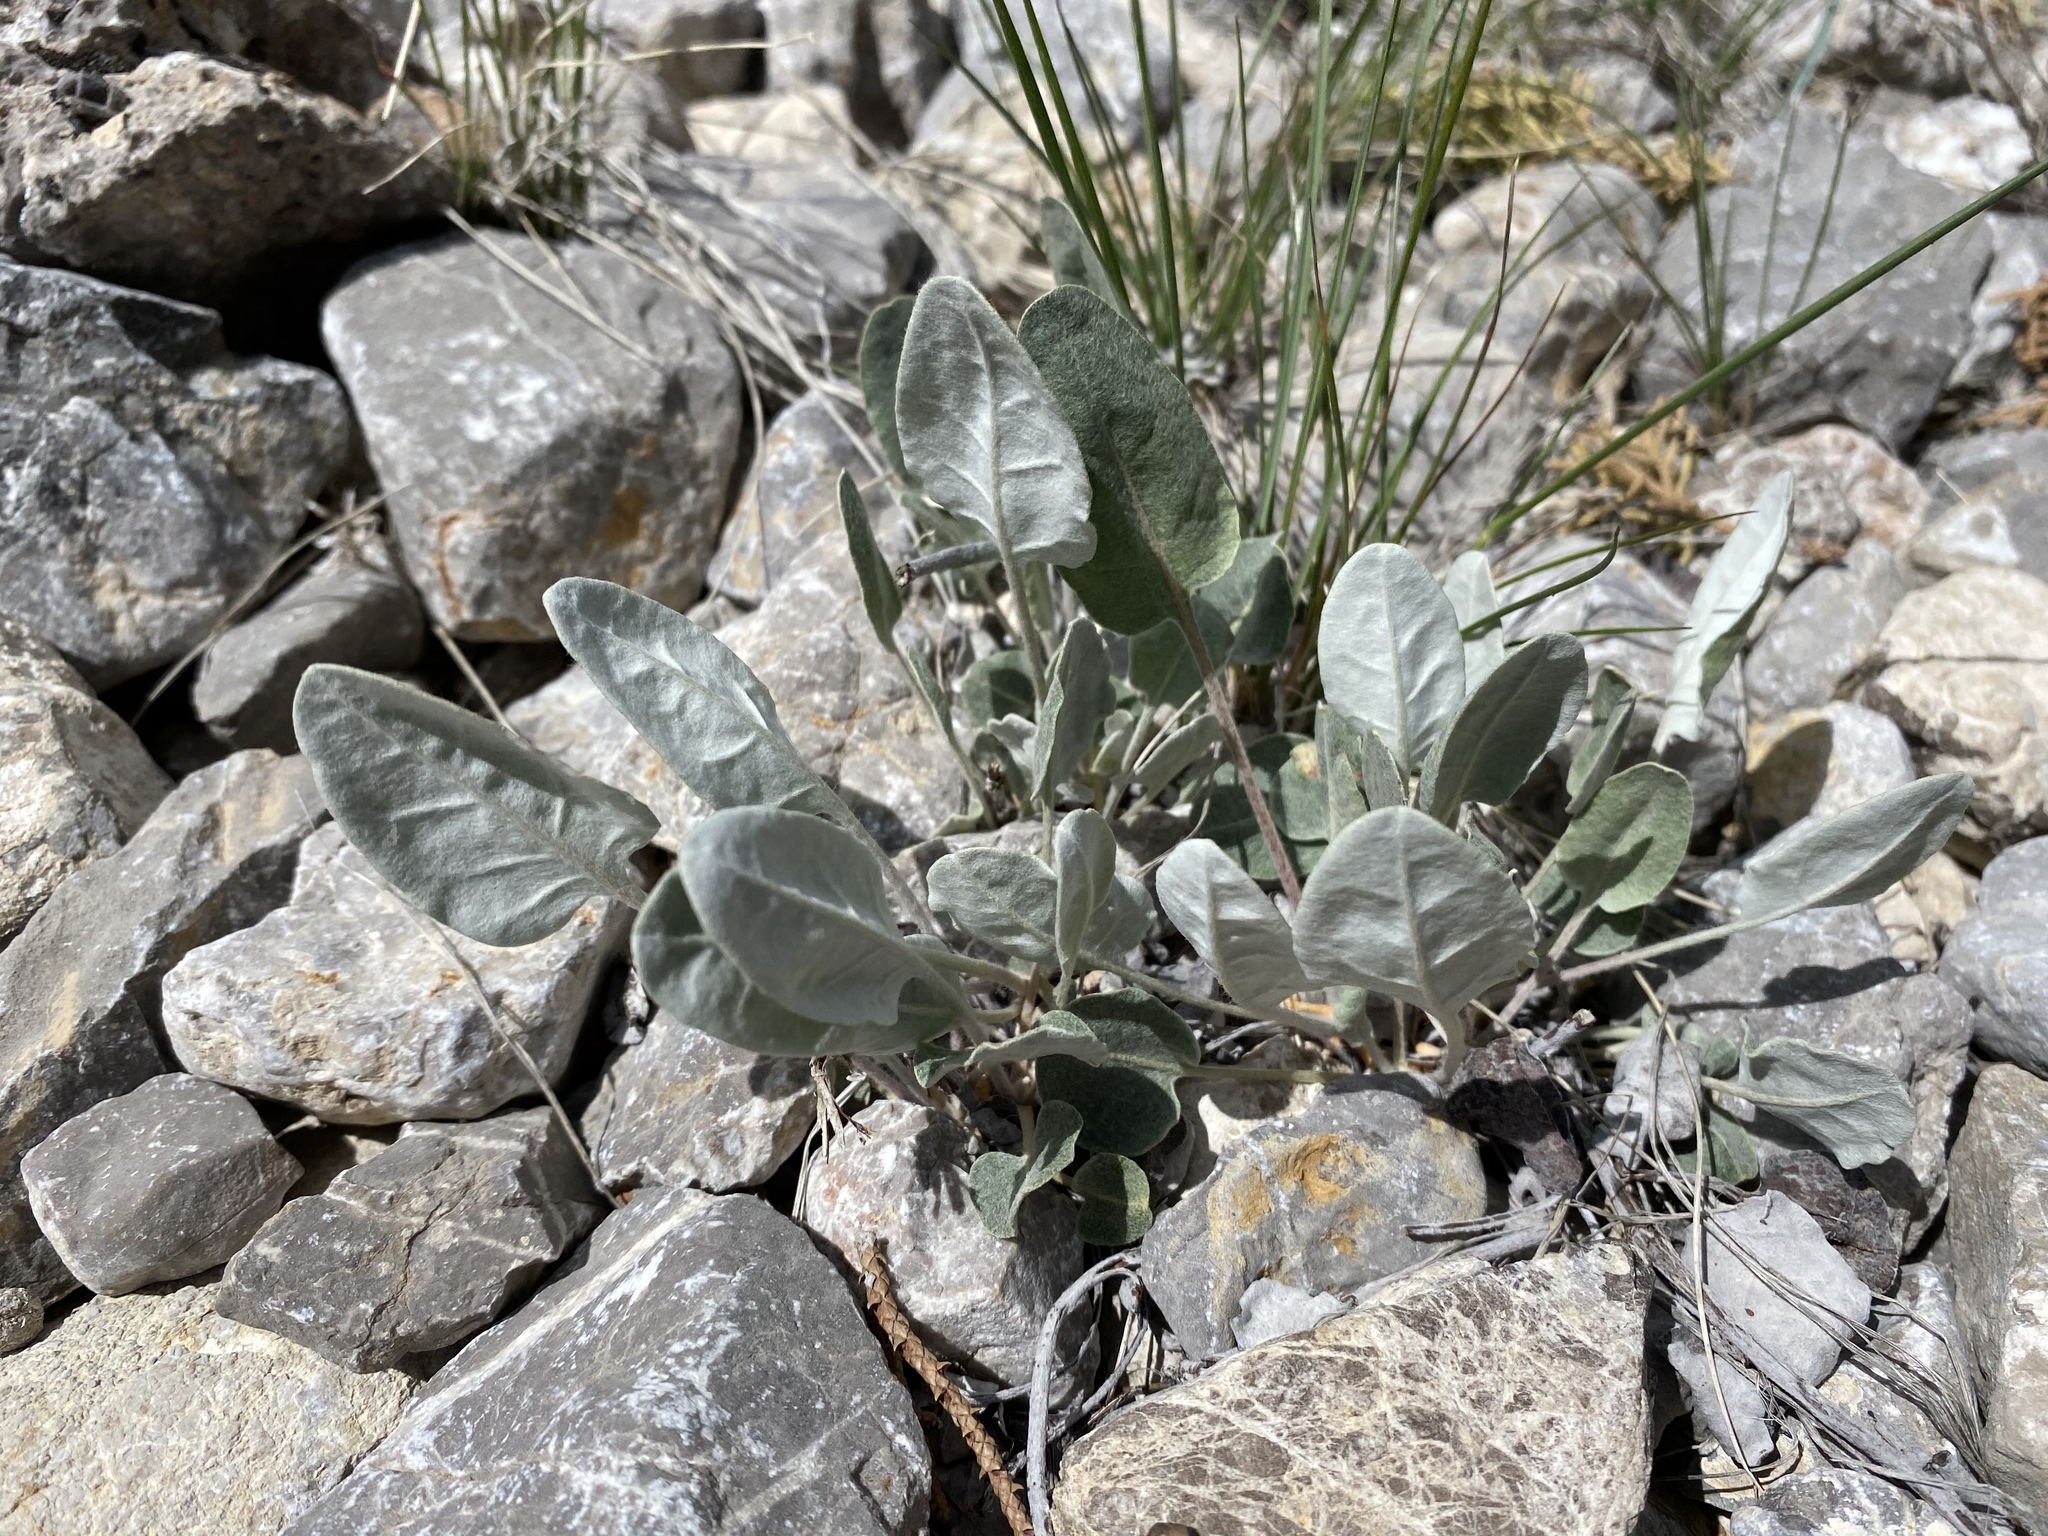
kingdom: Plantae
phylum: Tracheophyta
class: Magnoliopsida
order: Caryophyllales
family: Polygonaceae
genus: Eriogonum
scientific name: Eriogonum racemosum
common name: Redroot wild buckwheat
